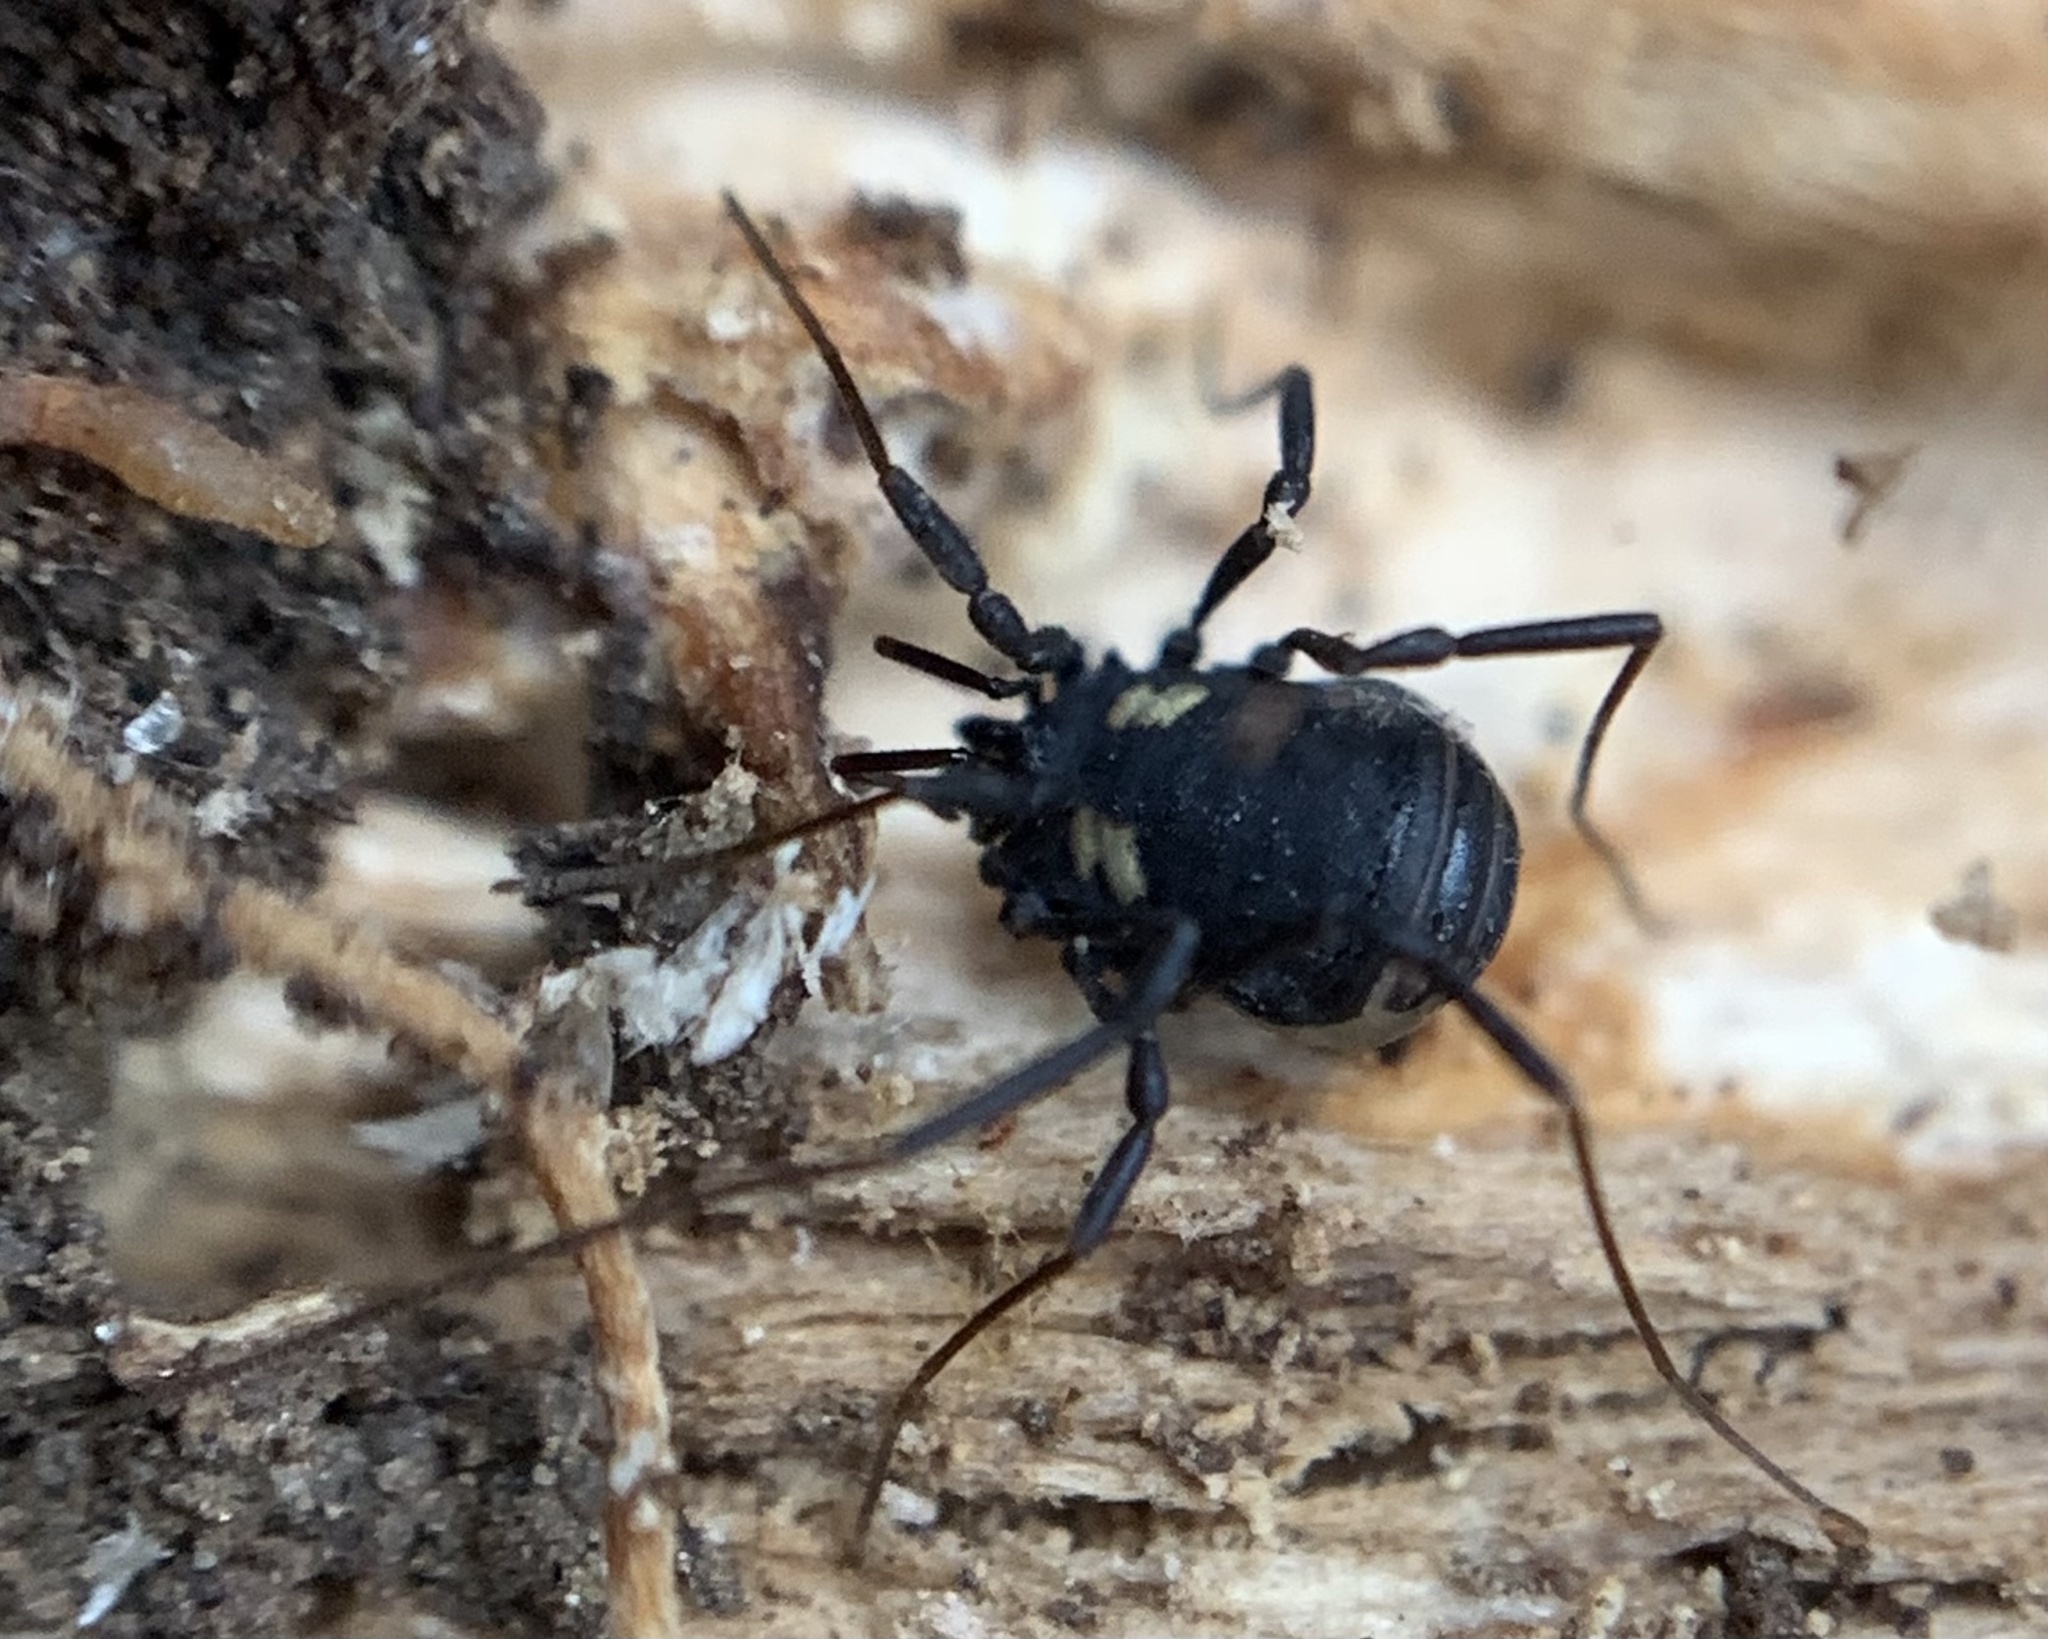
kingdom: Animalia
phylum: Arthropoda
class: Arachnida
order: Opiliones
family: Nemastomatidae
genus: Nemastoma
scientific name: Nemastoma bimaculatum
